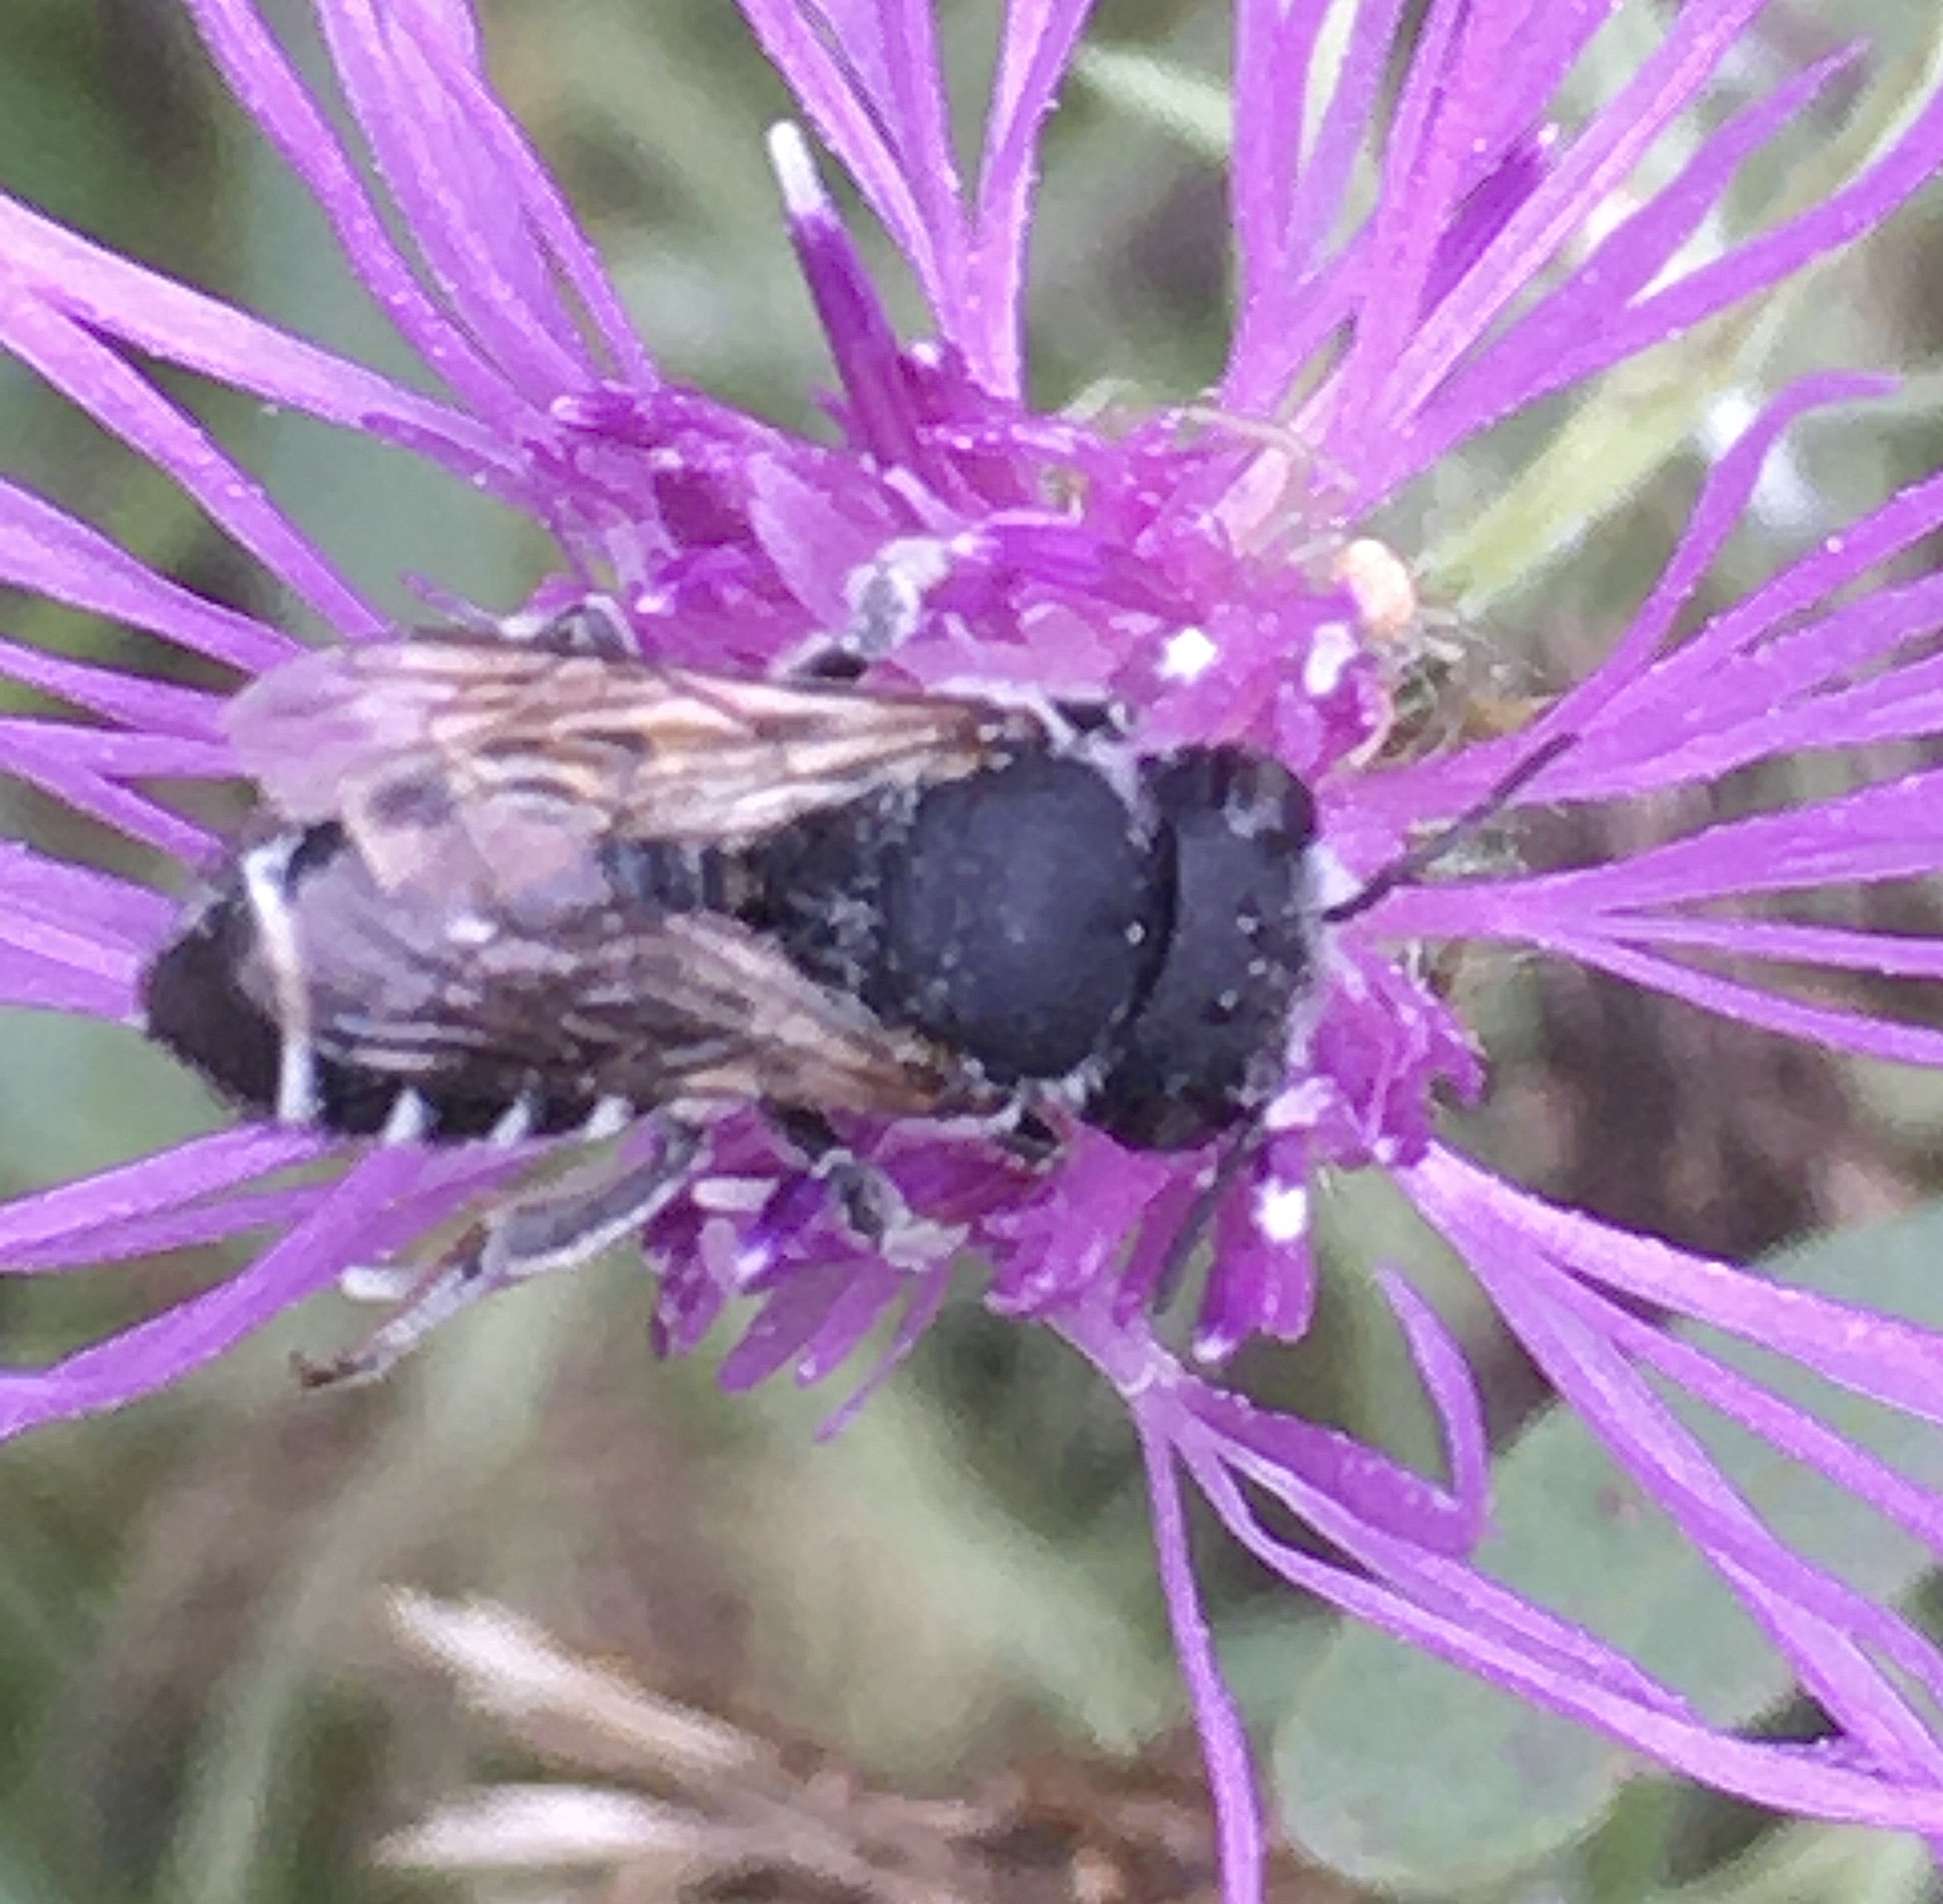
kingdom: Animalia
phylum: Arthropoda
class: Insecta
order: Hymenoptera
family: Megachilidae
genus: Megachile
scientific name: Megachile apicalis
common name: Apical leafcutter bee
